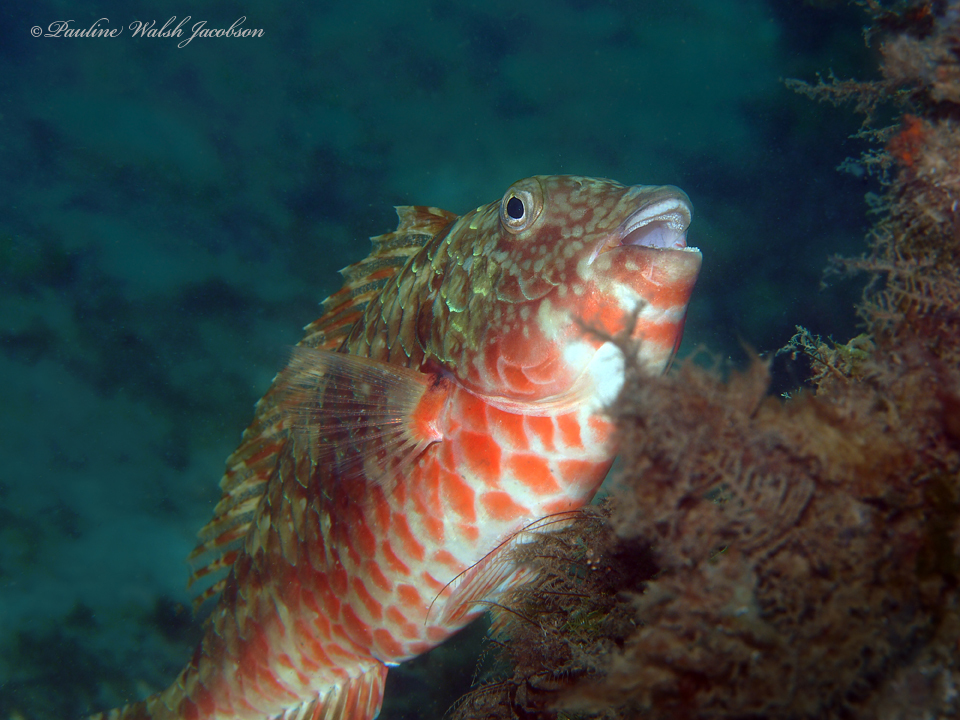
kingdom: Animalia
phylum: Chordata
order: Perciformes
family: Scaridae
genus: Sparisoma
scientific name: Sparisoma chrysopterum
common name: Redtail parrotfish
